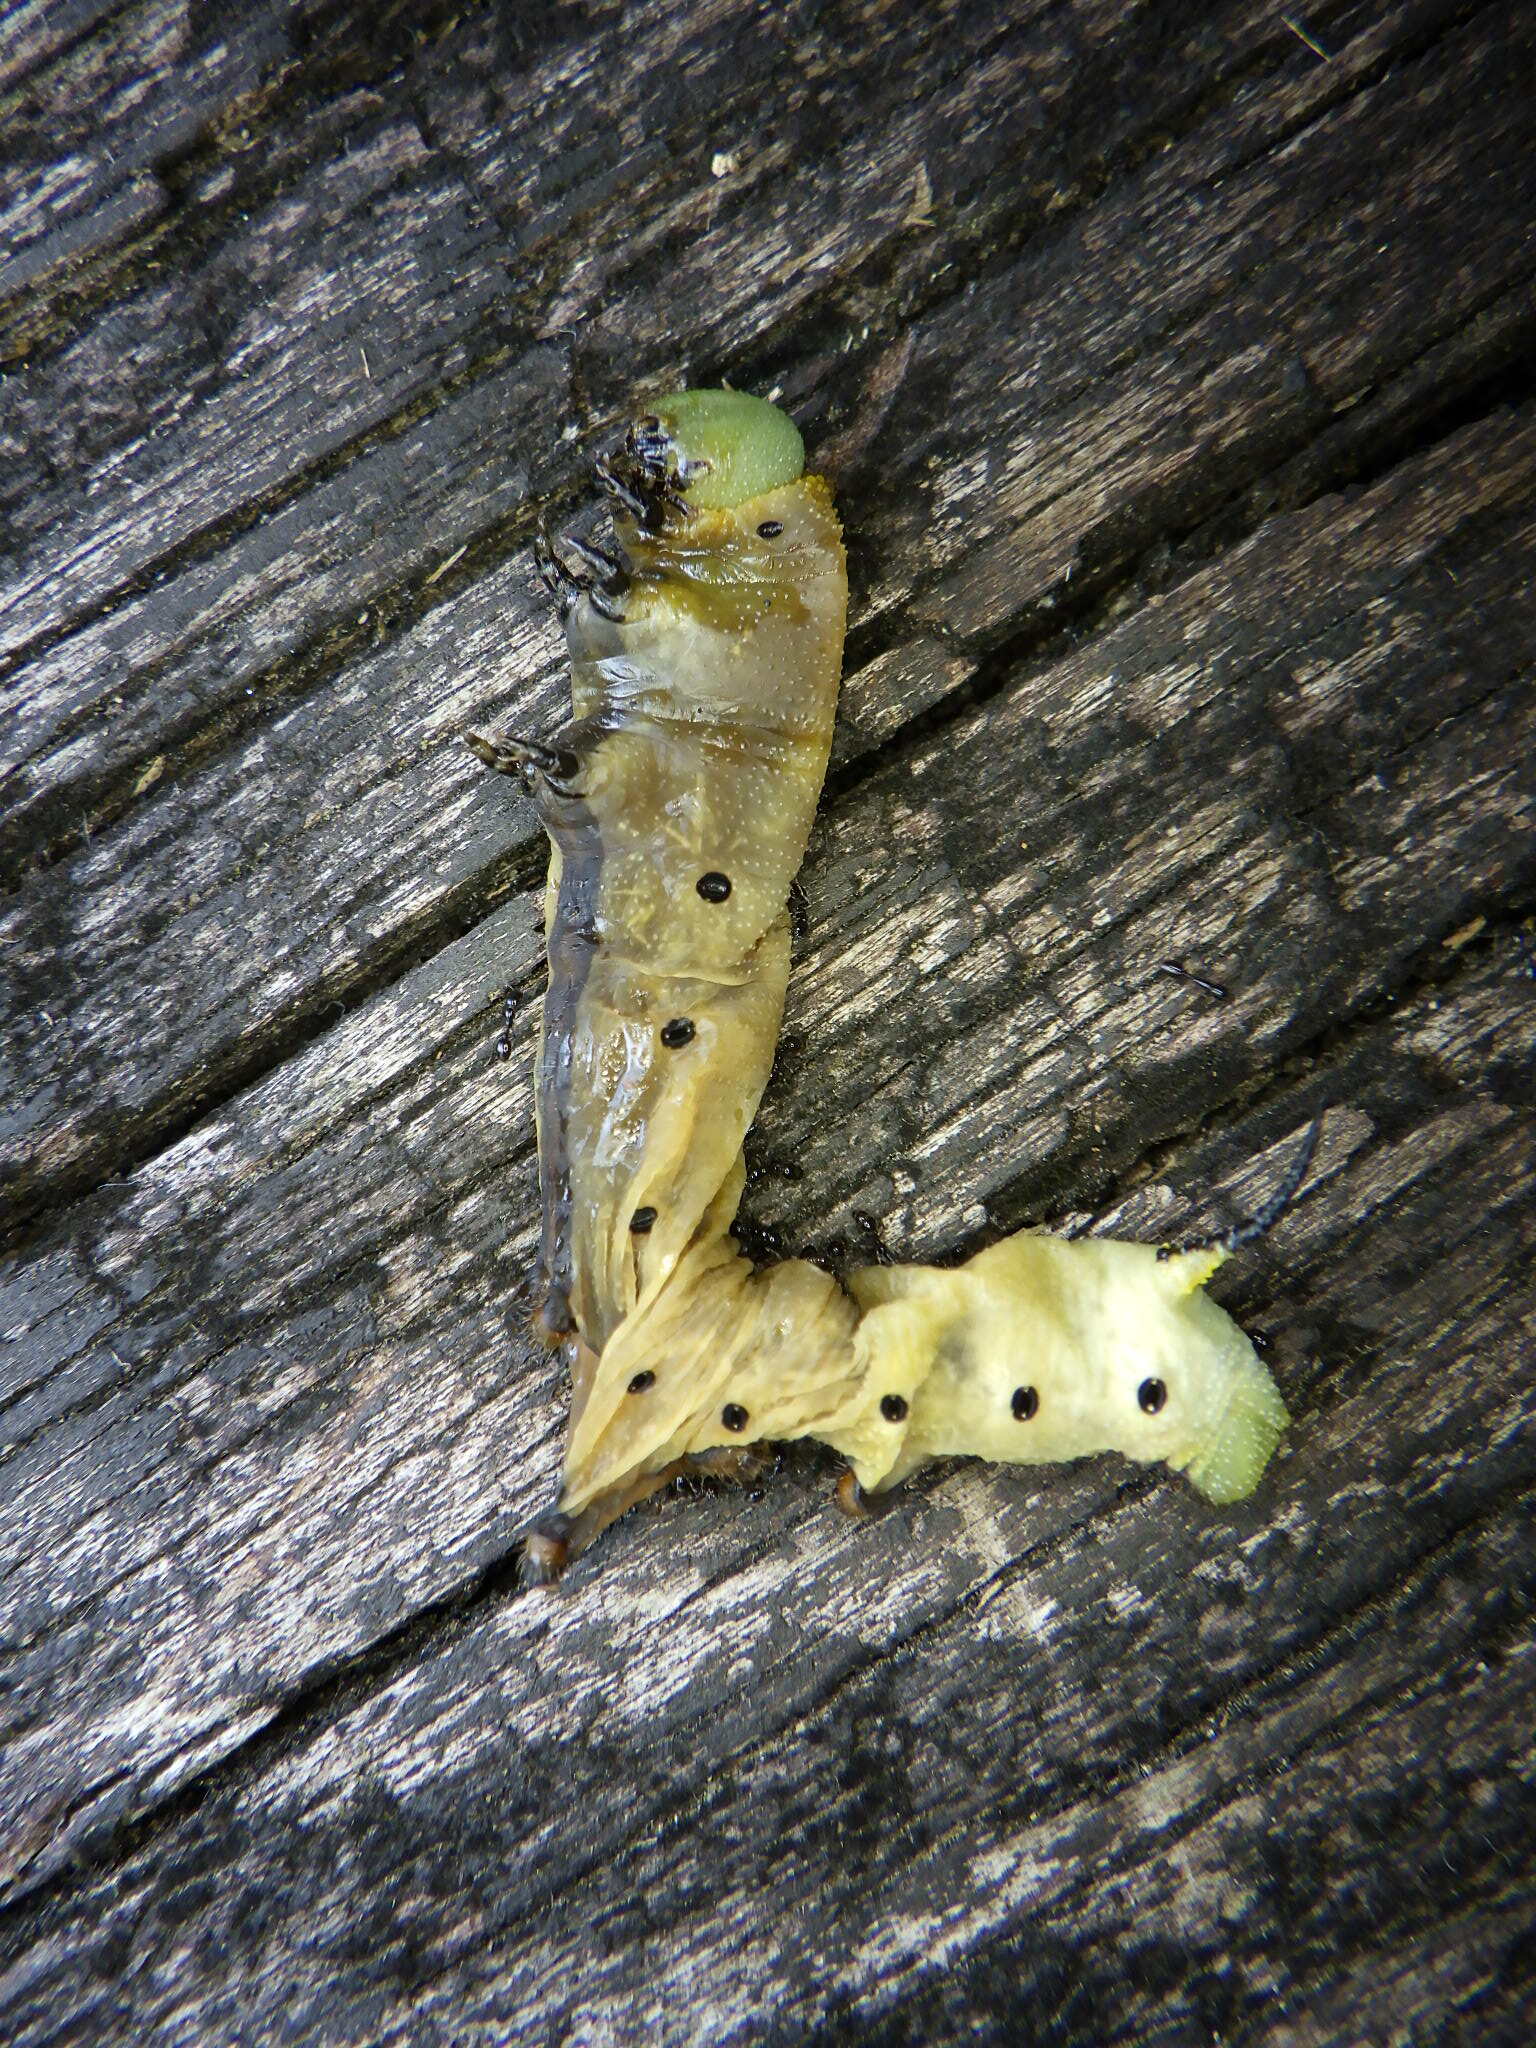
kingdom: Animalia
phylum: Arthropoda
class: Insecta
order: Lepidoptera
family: Sphingidae
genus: Hemaris
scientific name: Hemaris diffinis
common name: Bumblebee moth
